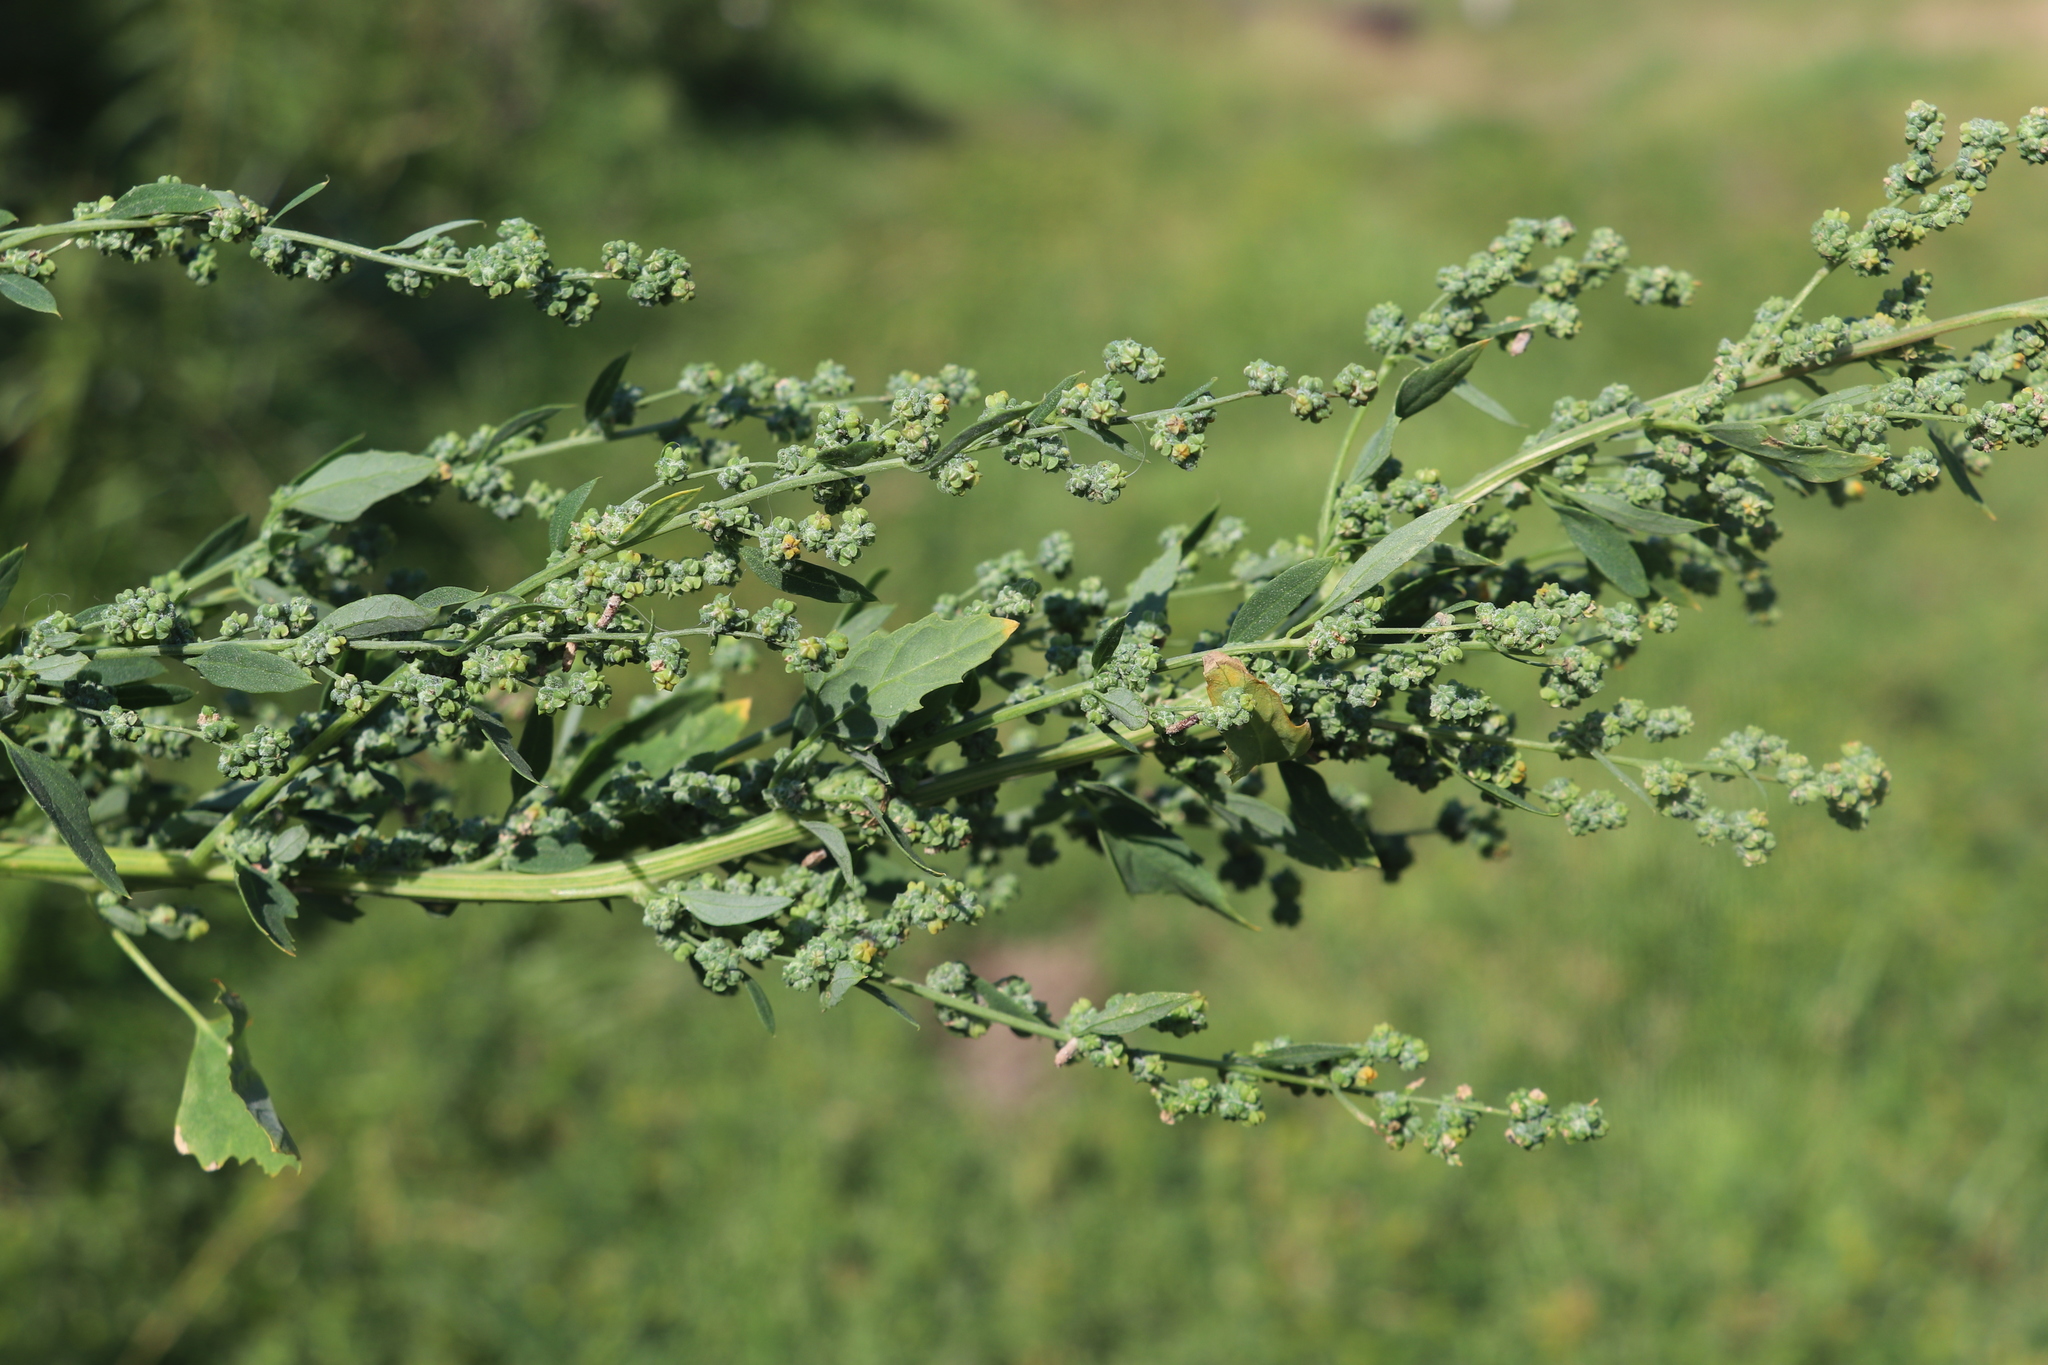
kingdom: Plantae
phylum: Tracheophyta
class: Magnoliopsida
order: Caryophyllales
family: Amaranthaceae
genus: Chenopodium
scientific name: Chenopodium album
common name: Fat-hen
